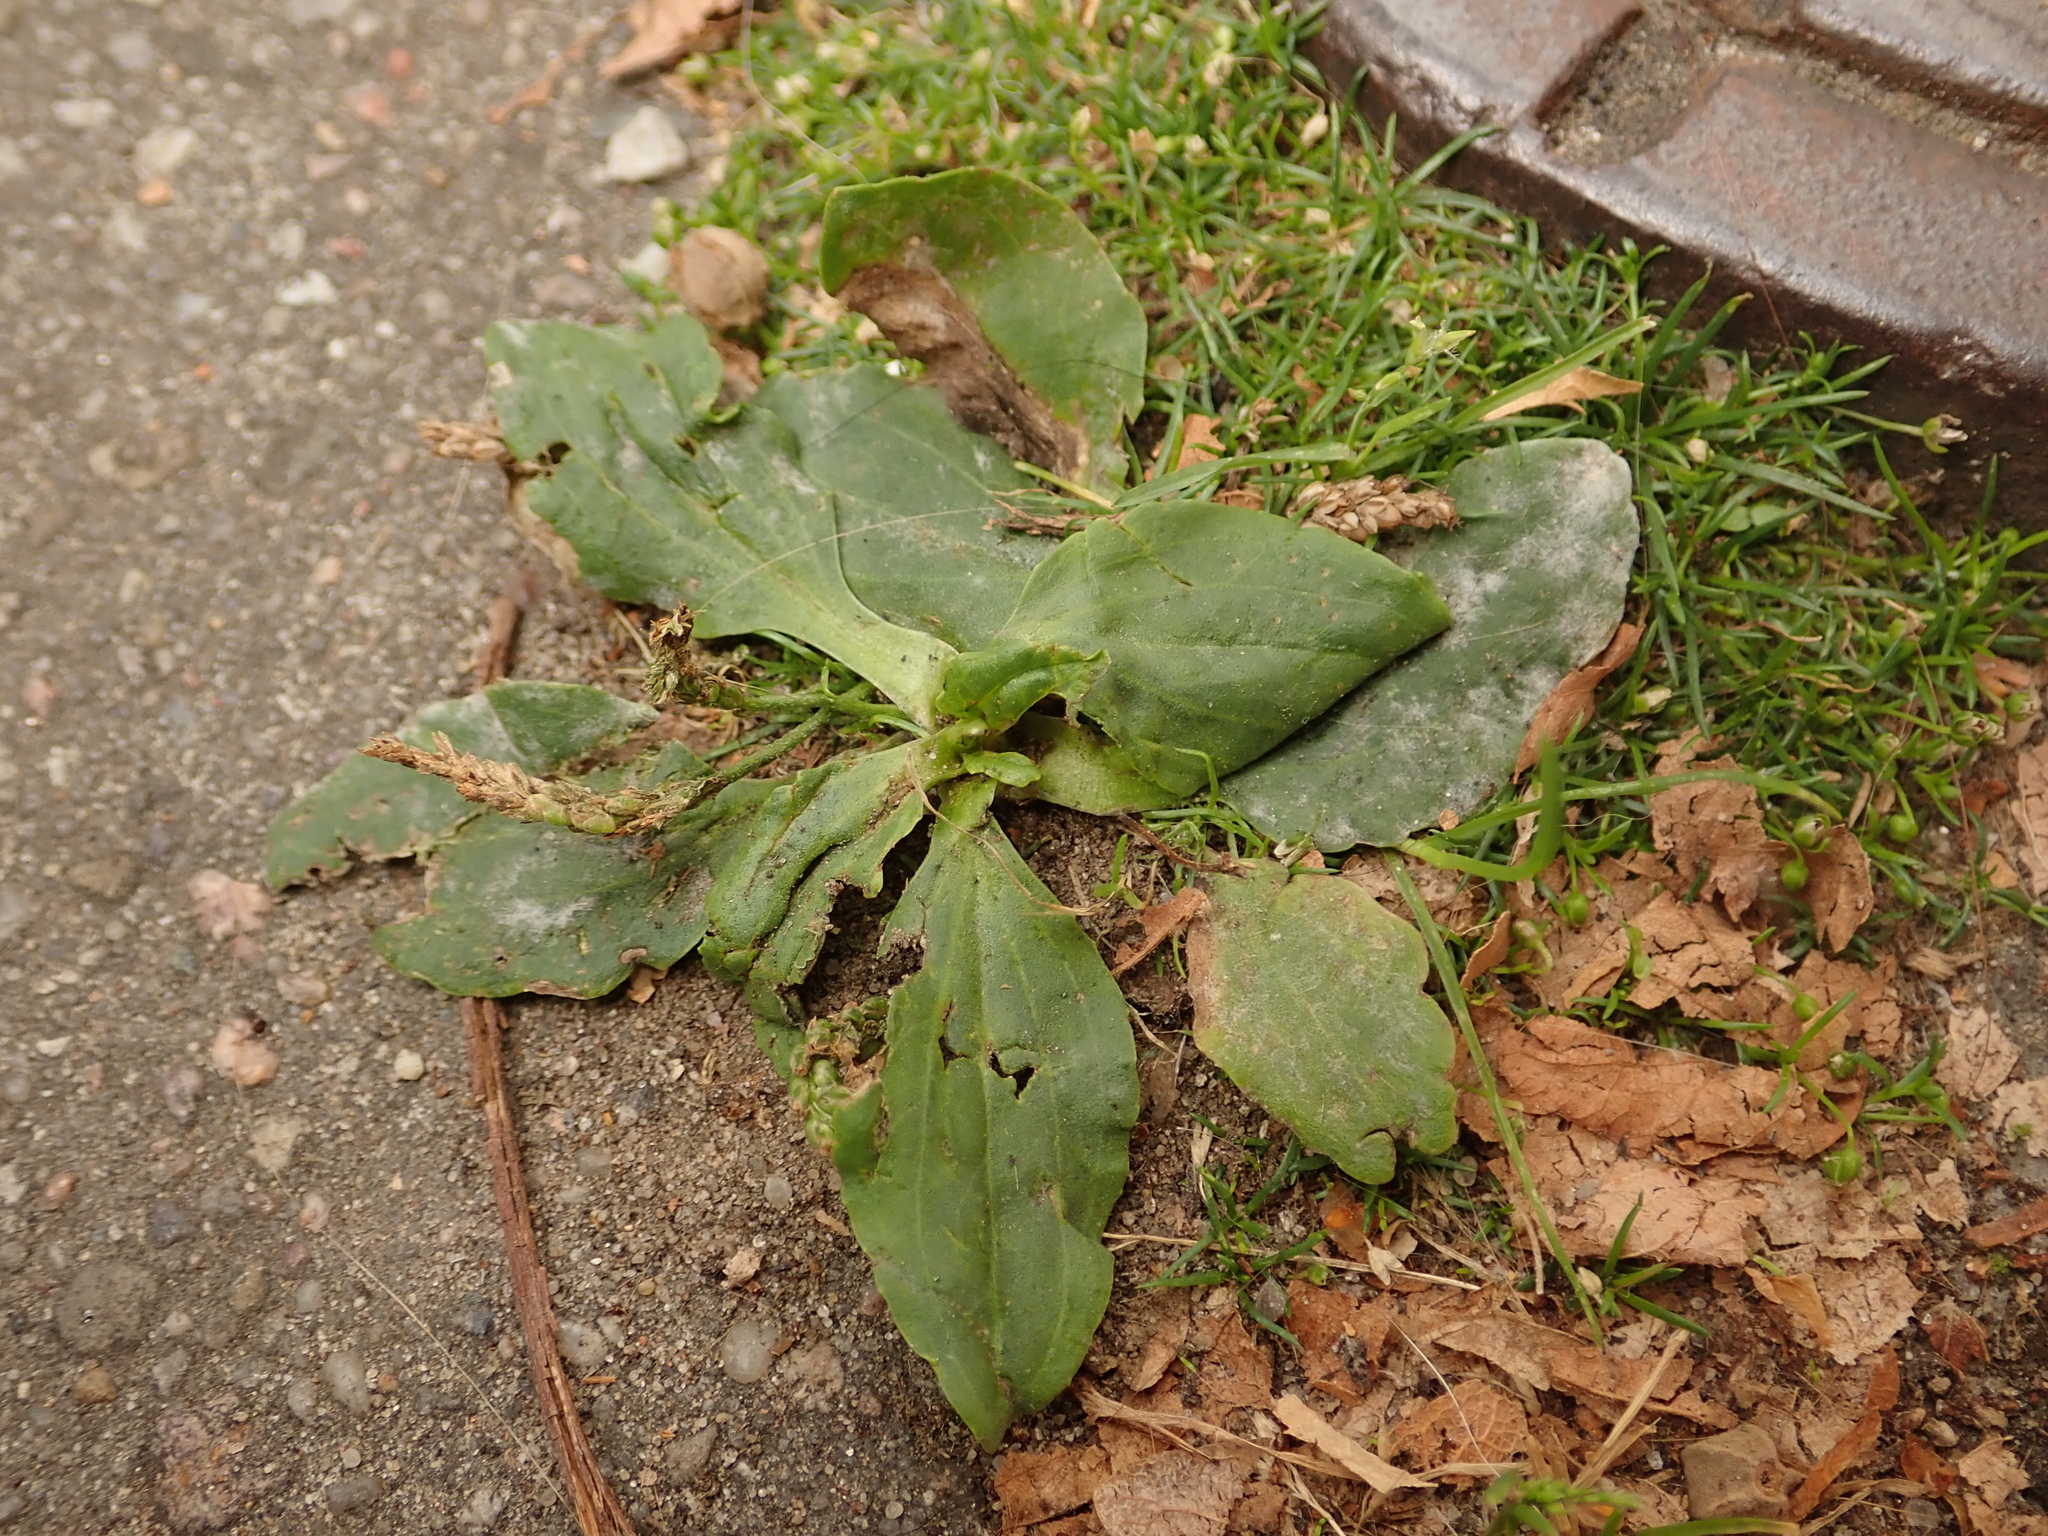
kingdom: Plantae
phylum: Tracheophyta
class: Magnoliopsida
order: Lamiales
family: Plantaginaceae
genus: Plantago
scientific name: Plantago major
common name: Common plantain
